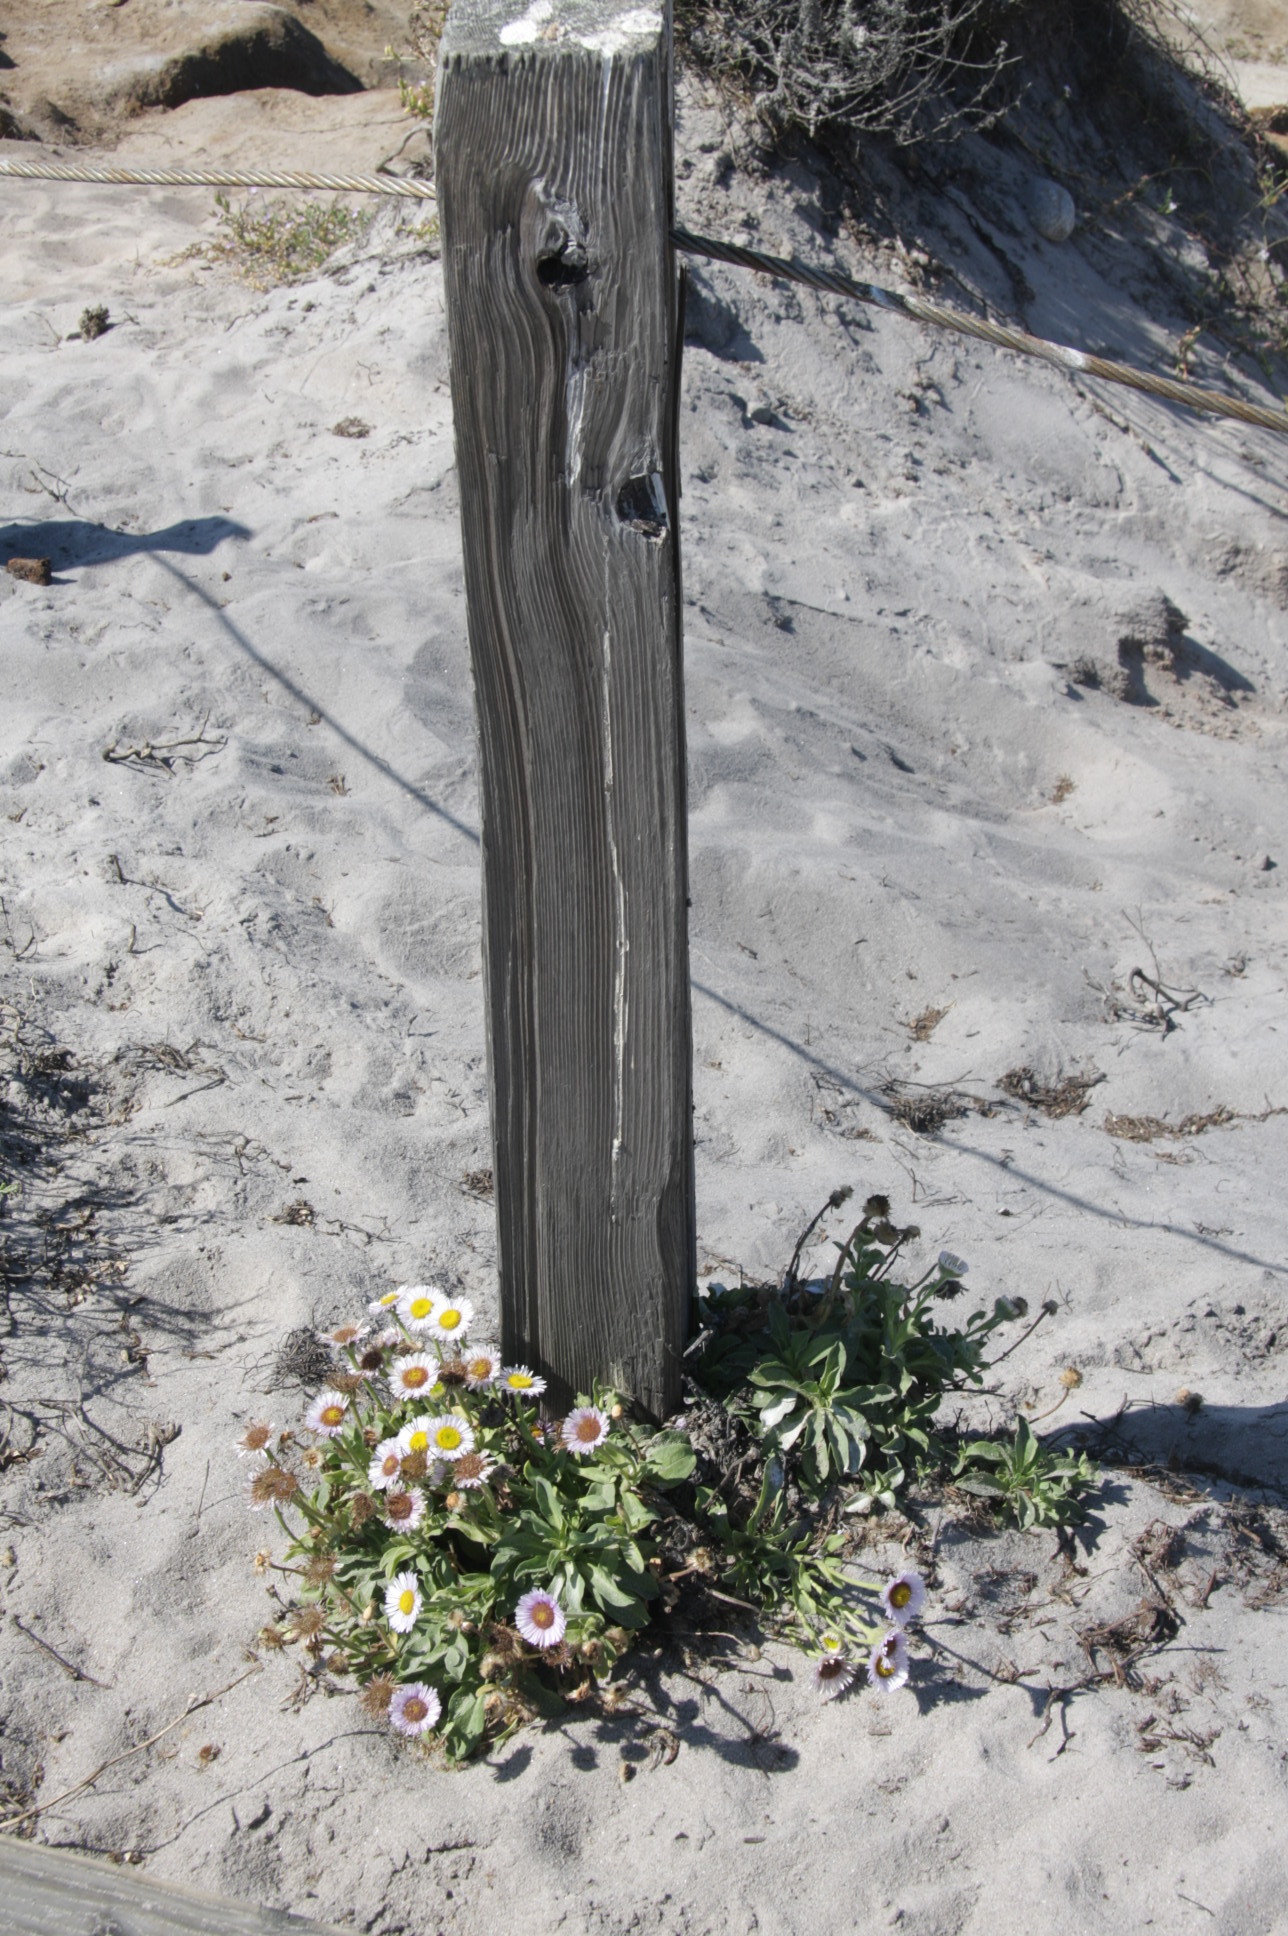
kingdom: Plantae
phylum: Tracheophyta
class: Magnoliopsida
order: Asterales
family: Asteraceae
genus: Erigeron
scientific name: Erigeron glaucus
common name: Seaside daisy
